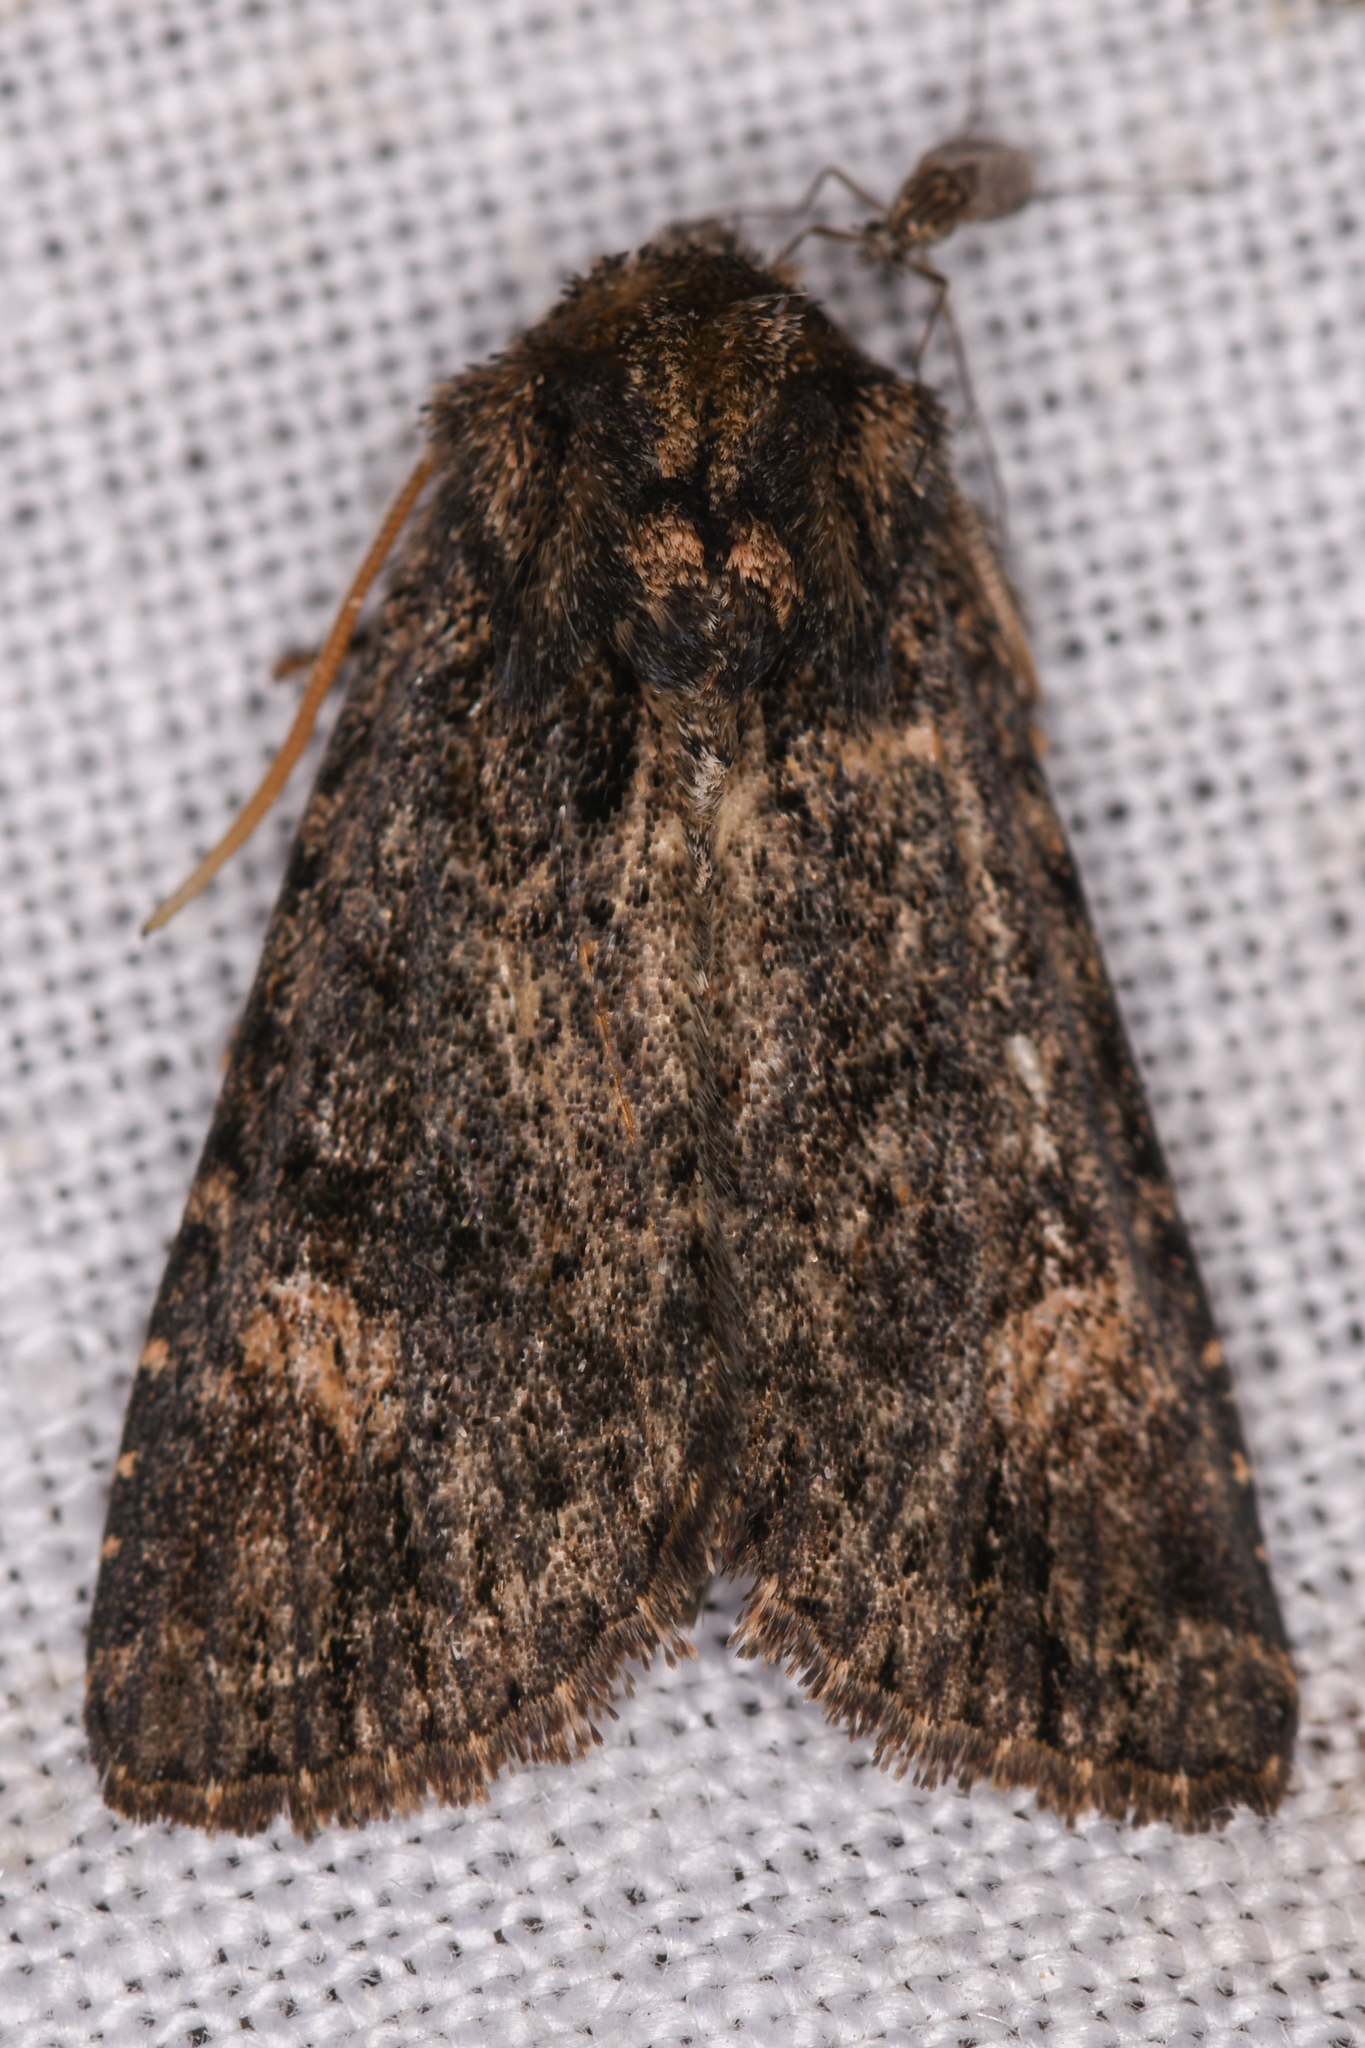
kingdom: Animalia
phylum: Arthropoda
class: Insecta
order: Lepidoptera
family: Noctuidae
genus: Aseptis
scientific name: Aseptis binotata
